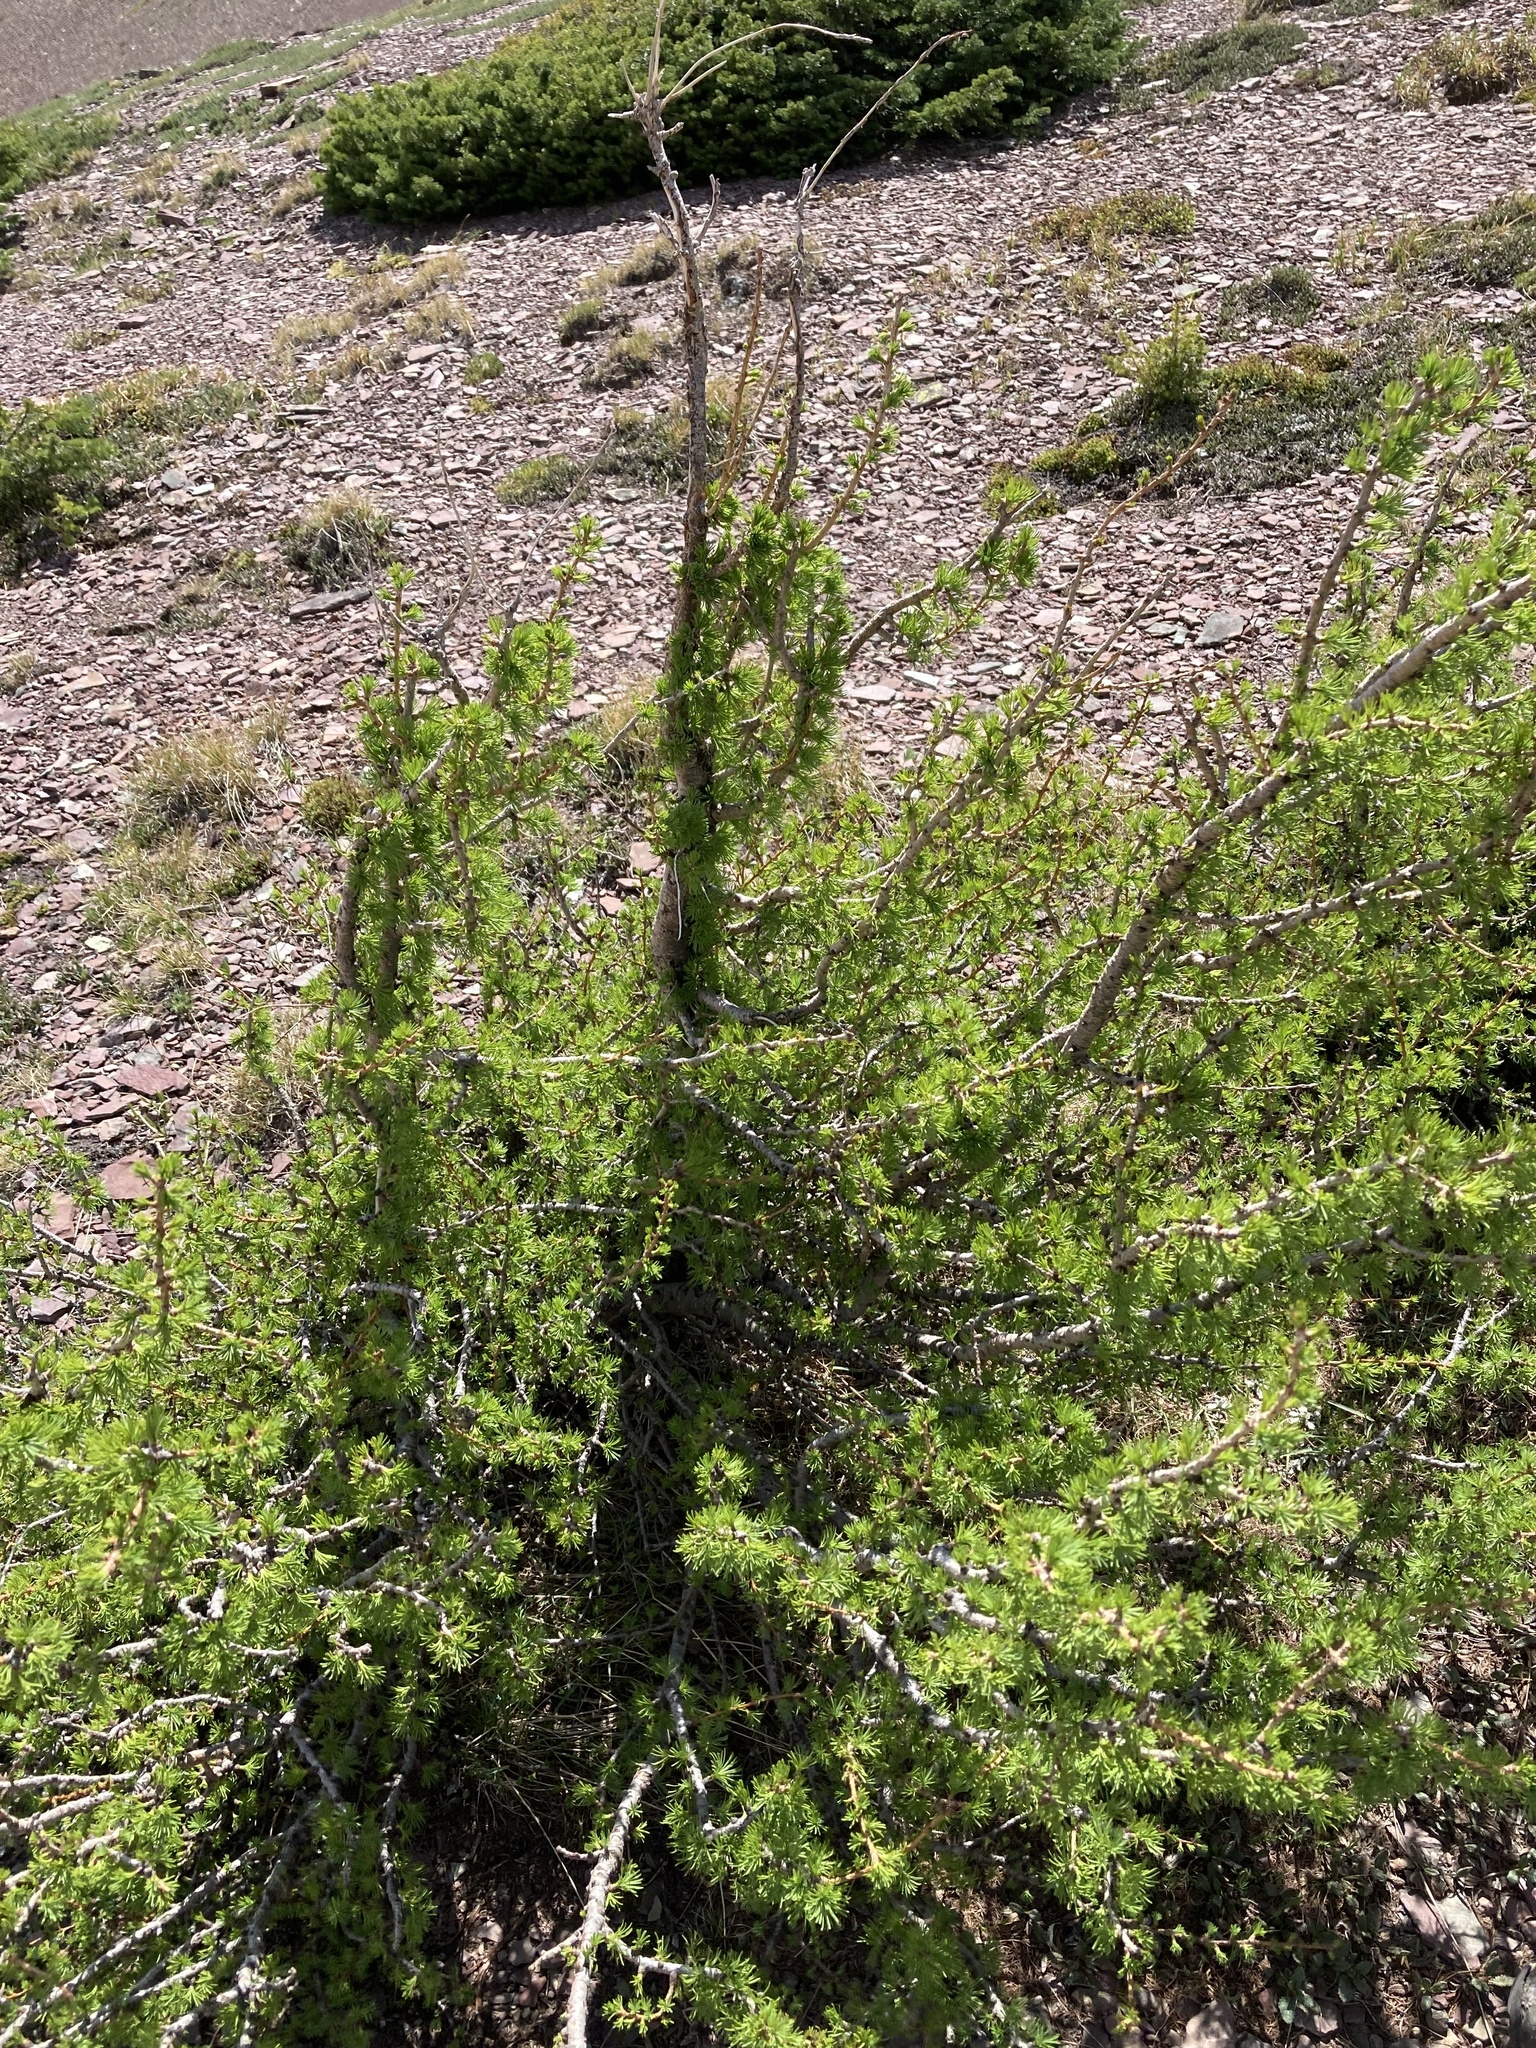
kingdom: Plantae
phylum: Tracheophyta
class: Pinopsida
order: Pinales
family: Pinaceae
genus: Larix
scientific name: Larix lyallii
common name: Alpine larch
